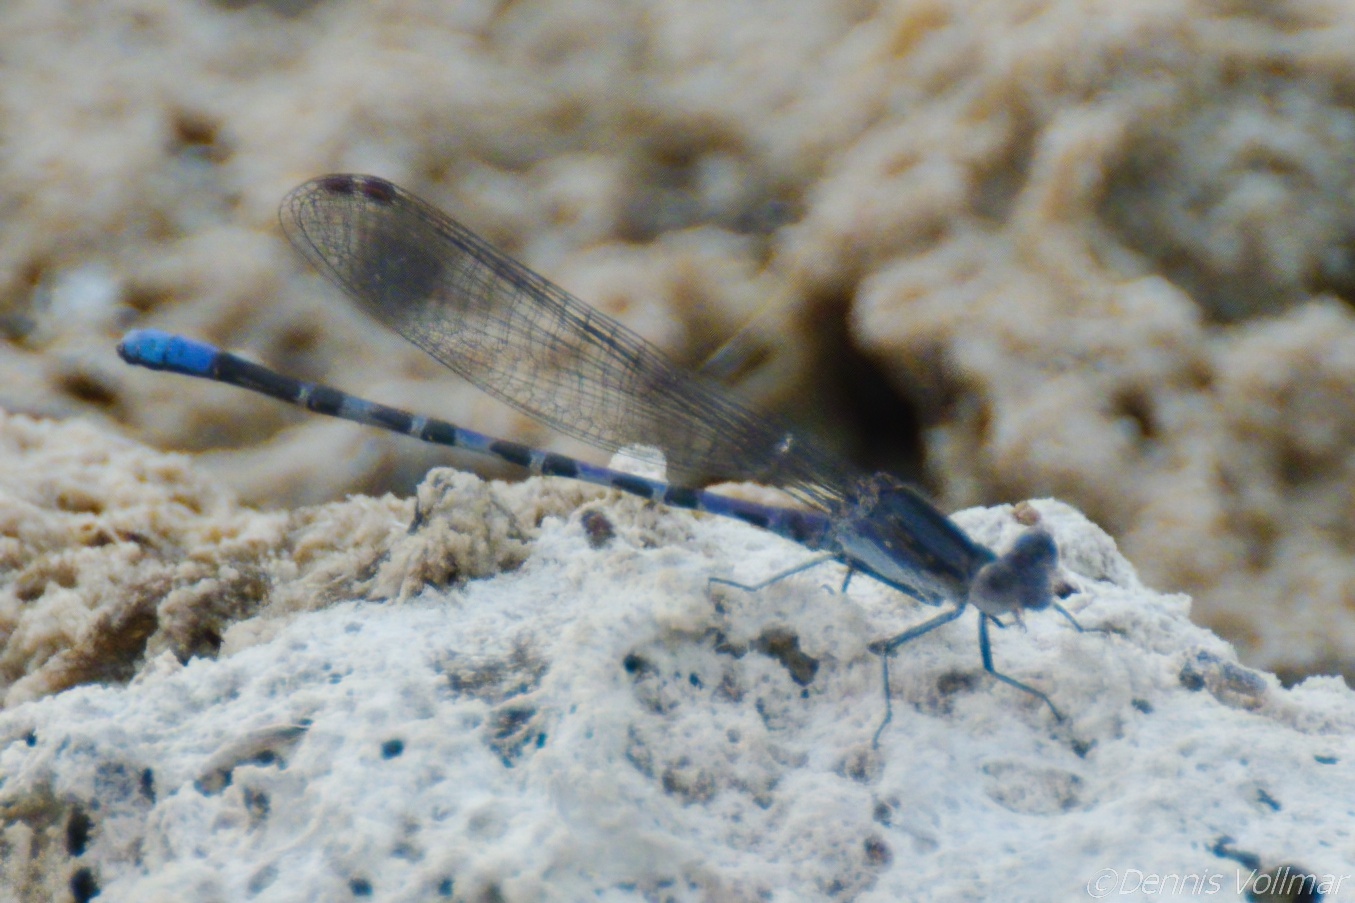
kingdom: Animalia
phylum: Arthropoda
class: Insecta
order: Odonata
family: Coenagrionidae
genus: Argia
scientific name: Argia immunda
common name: Kiowa dancer
